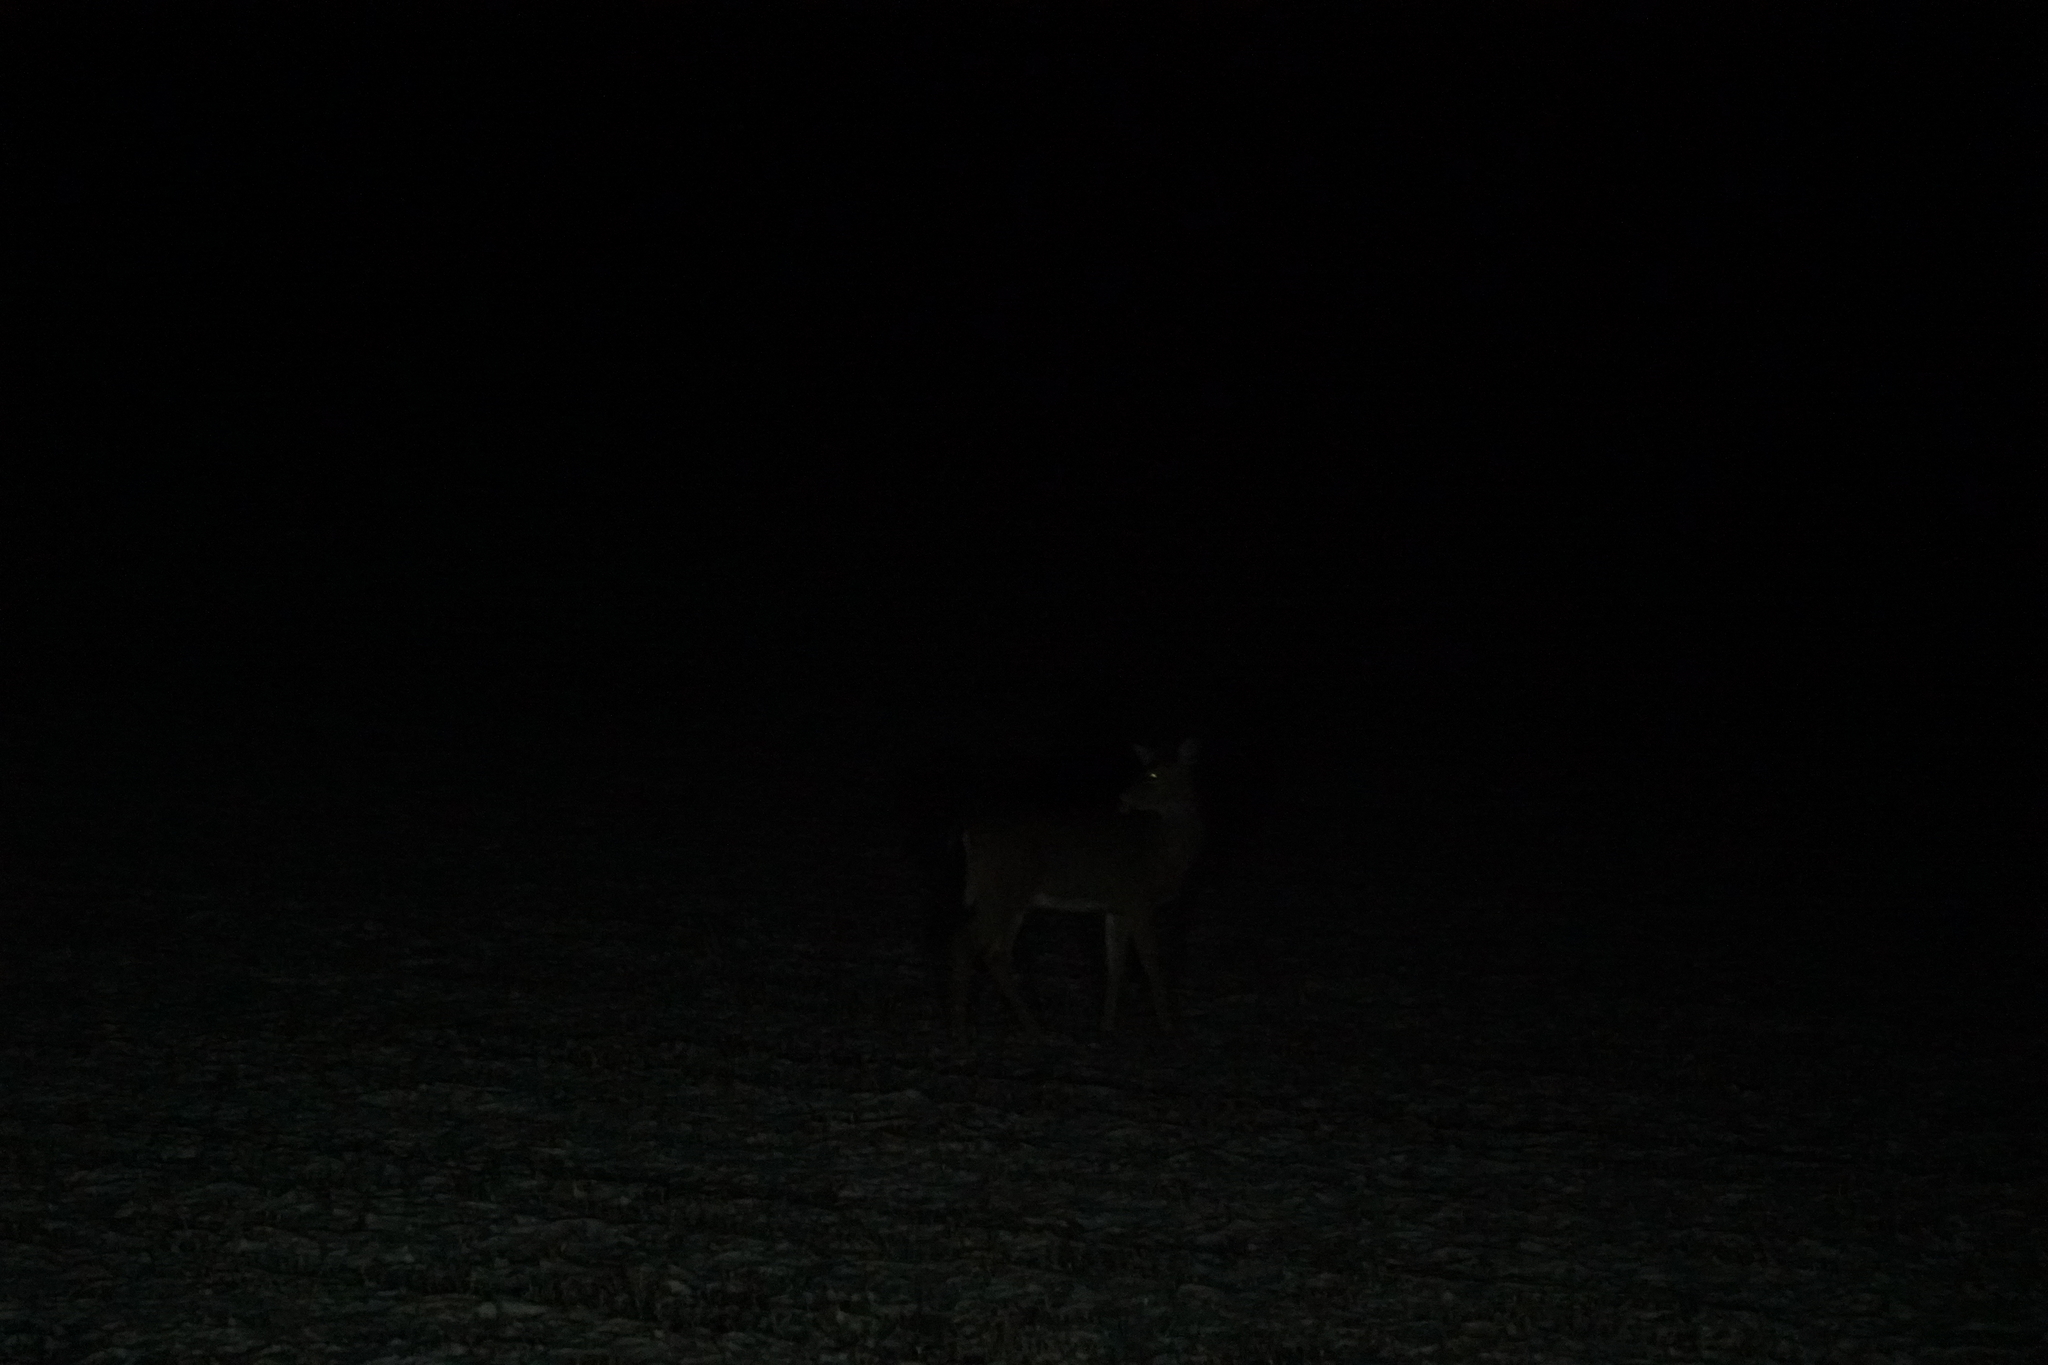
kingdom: Animalia
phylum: Chordata
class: Mammalia
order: Artiodactyla
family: Cervidae
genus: Odocoileus
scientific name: Odocoileus virginianus
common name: White-tailed deer
